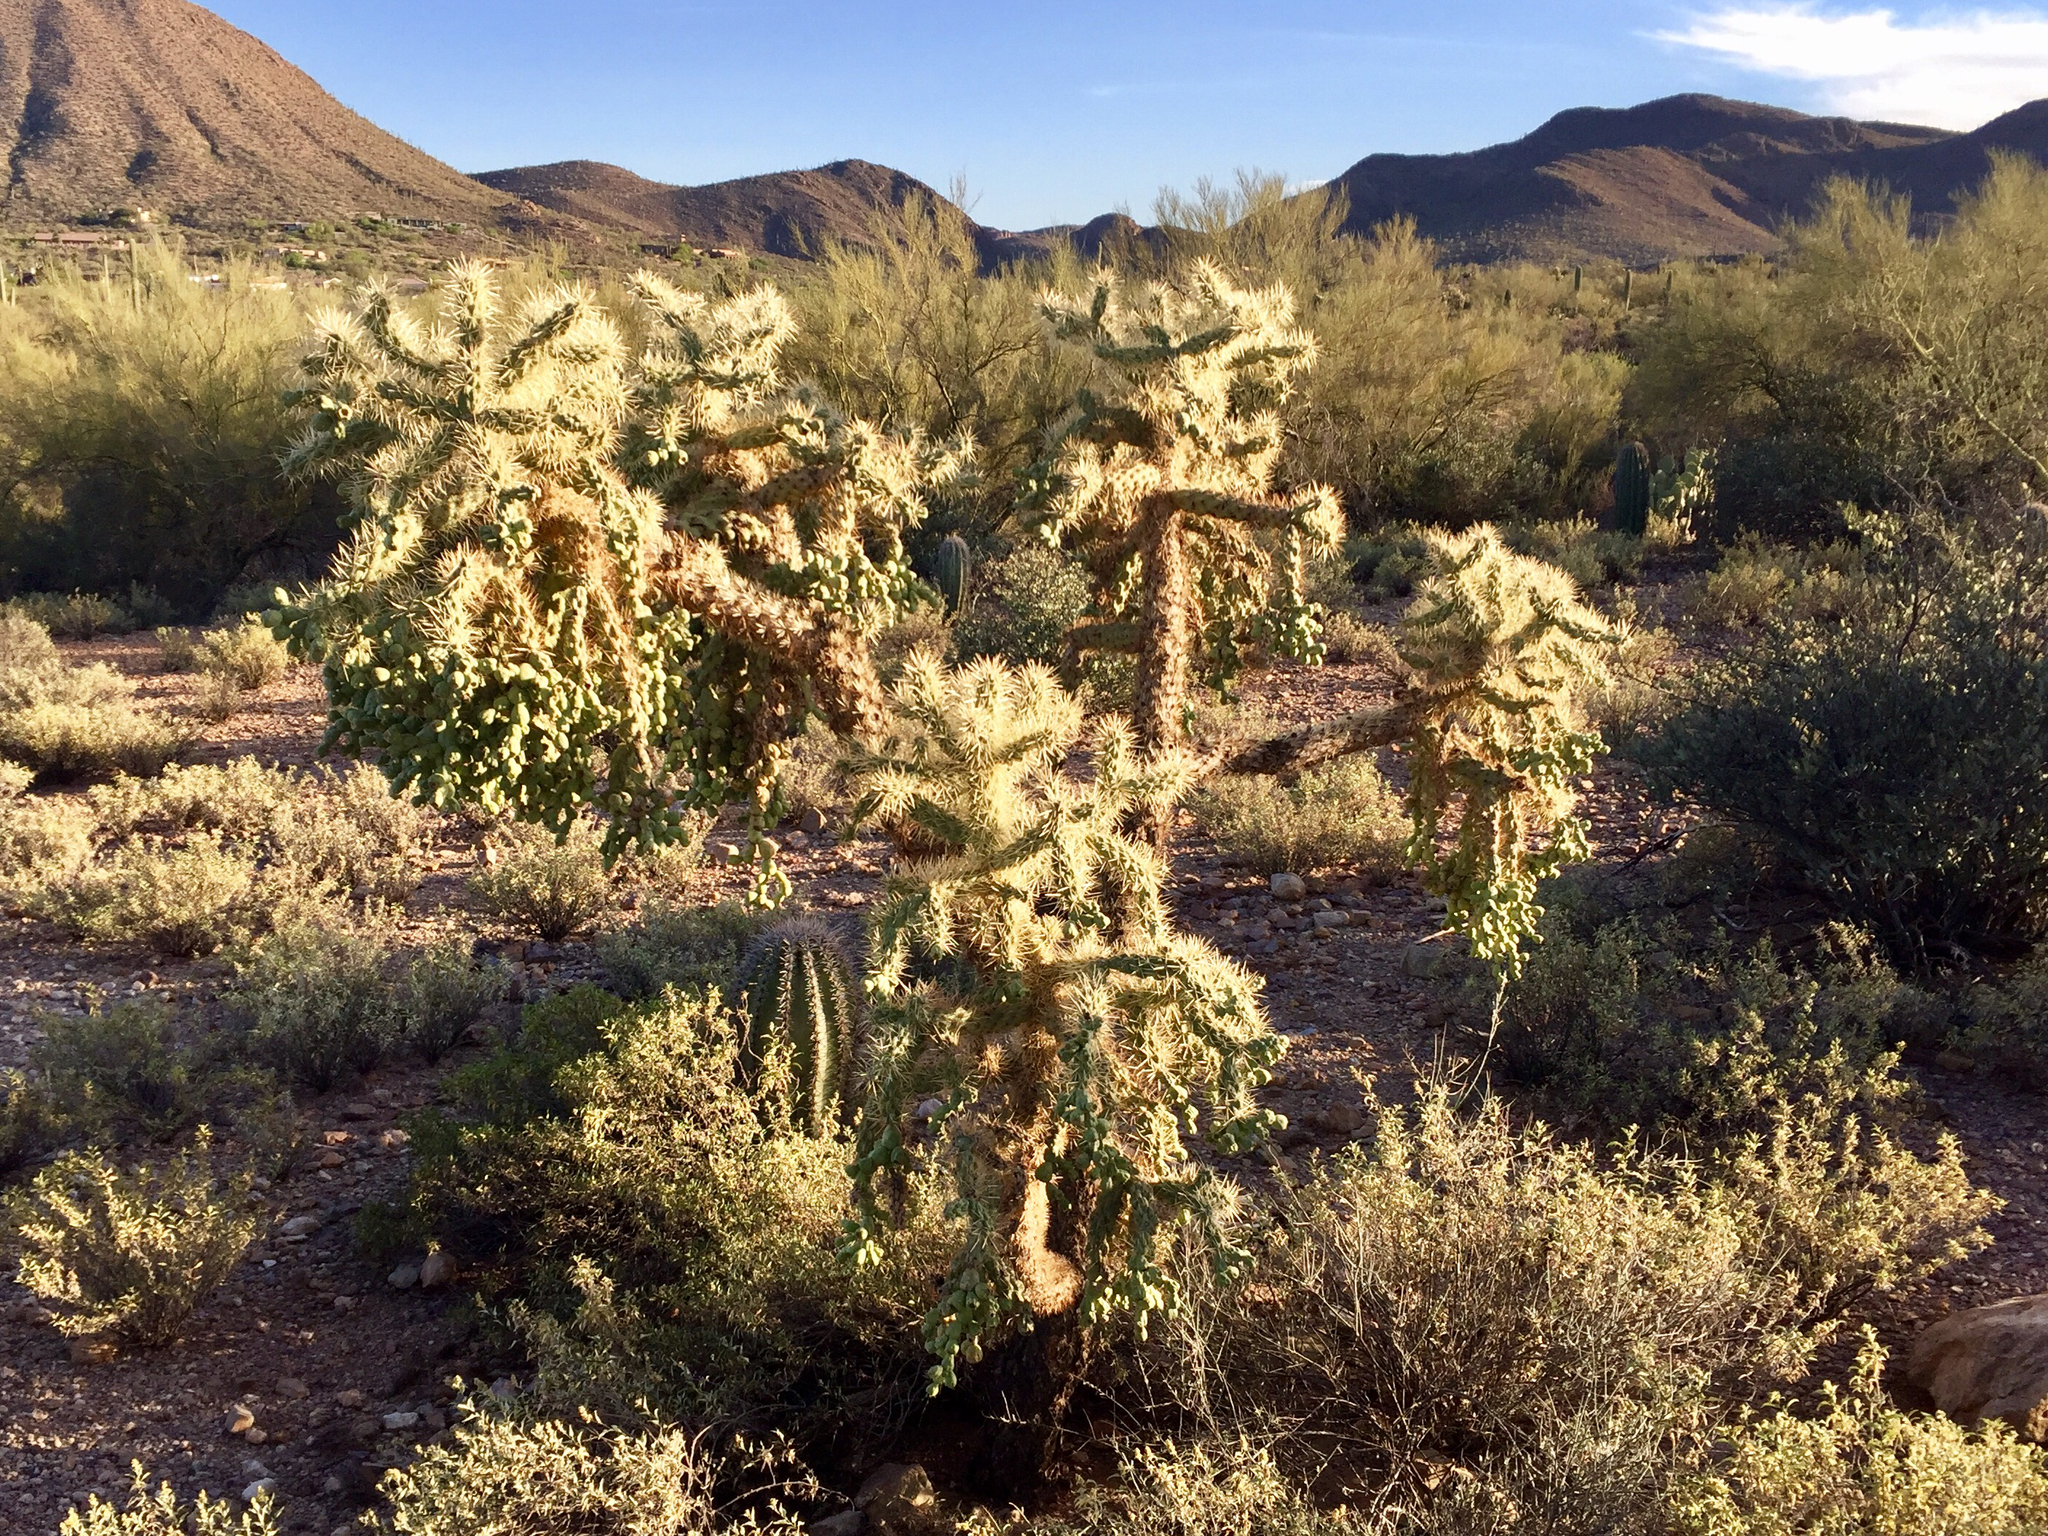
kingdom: Plantae
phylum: Tracheophyta
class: Magnoliopsida
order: Caryophyllales
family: Cactaceae
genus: Cylindropuntia
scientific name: Cylindropuntia fulgida
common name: Jumping cholla
